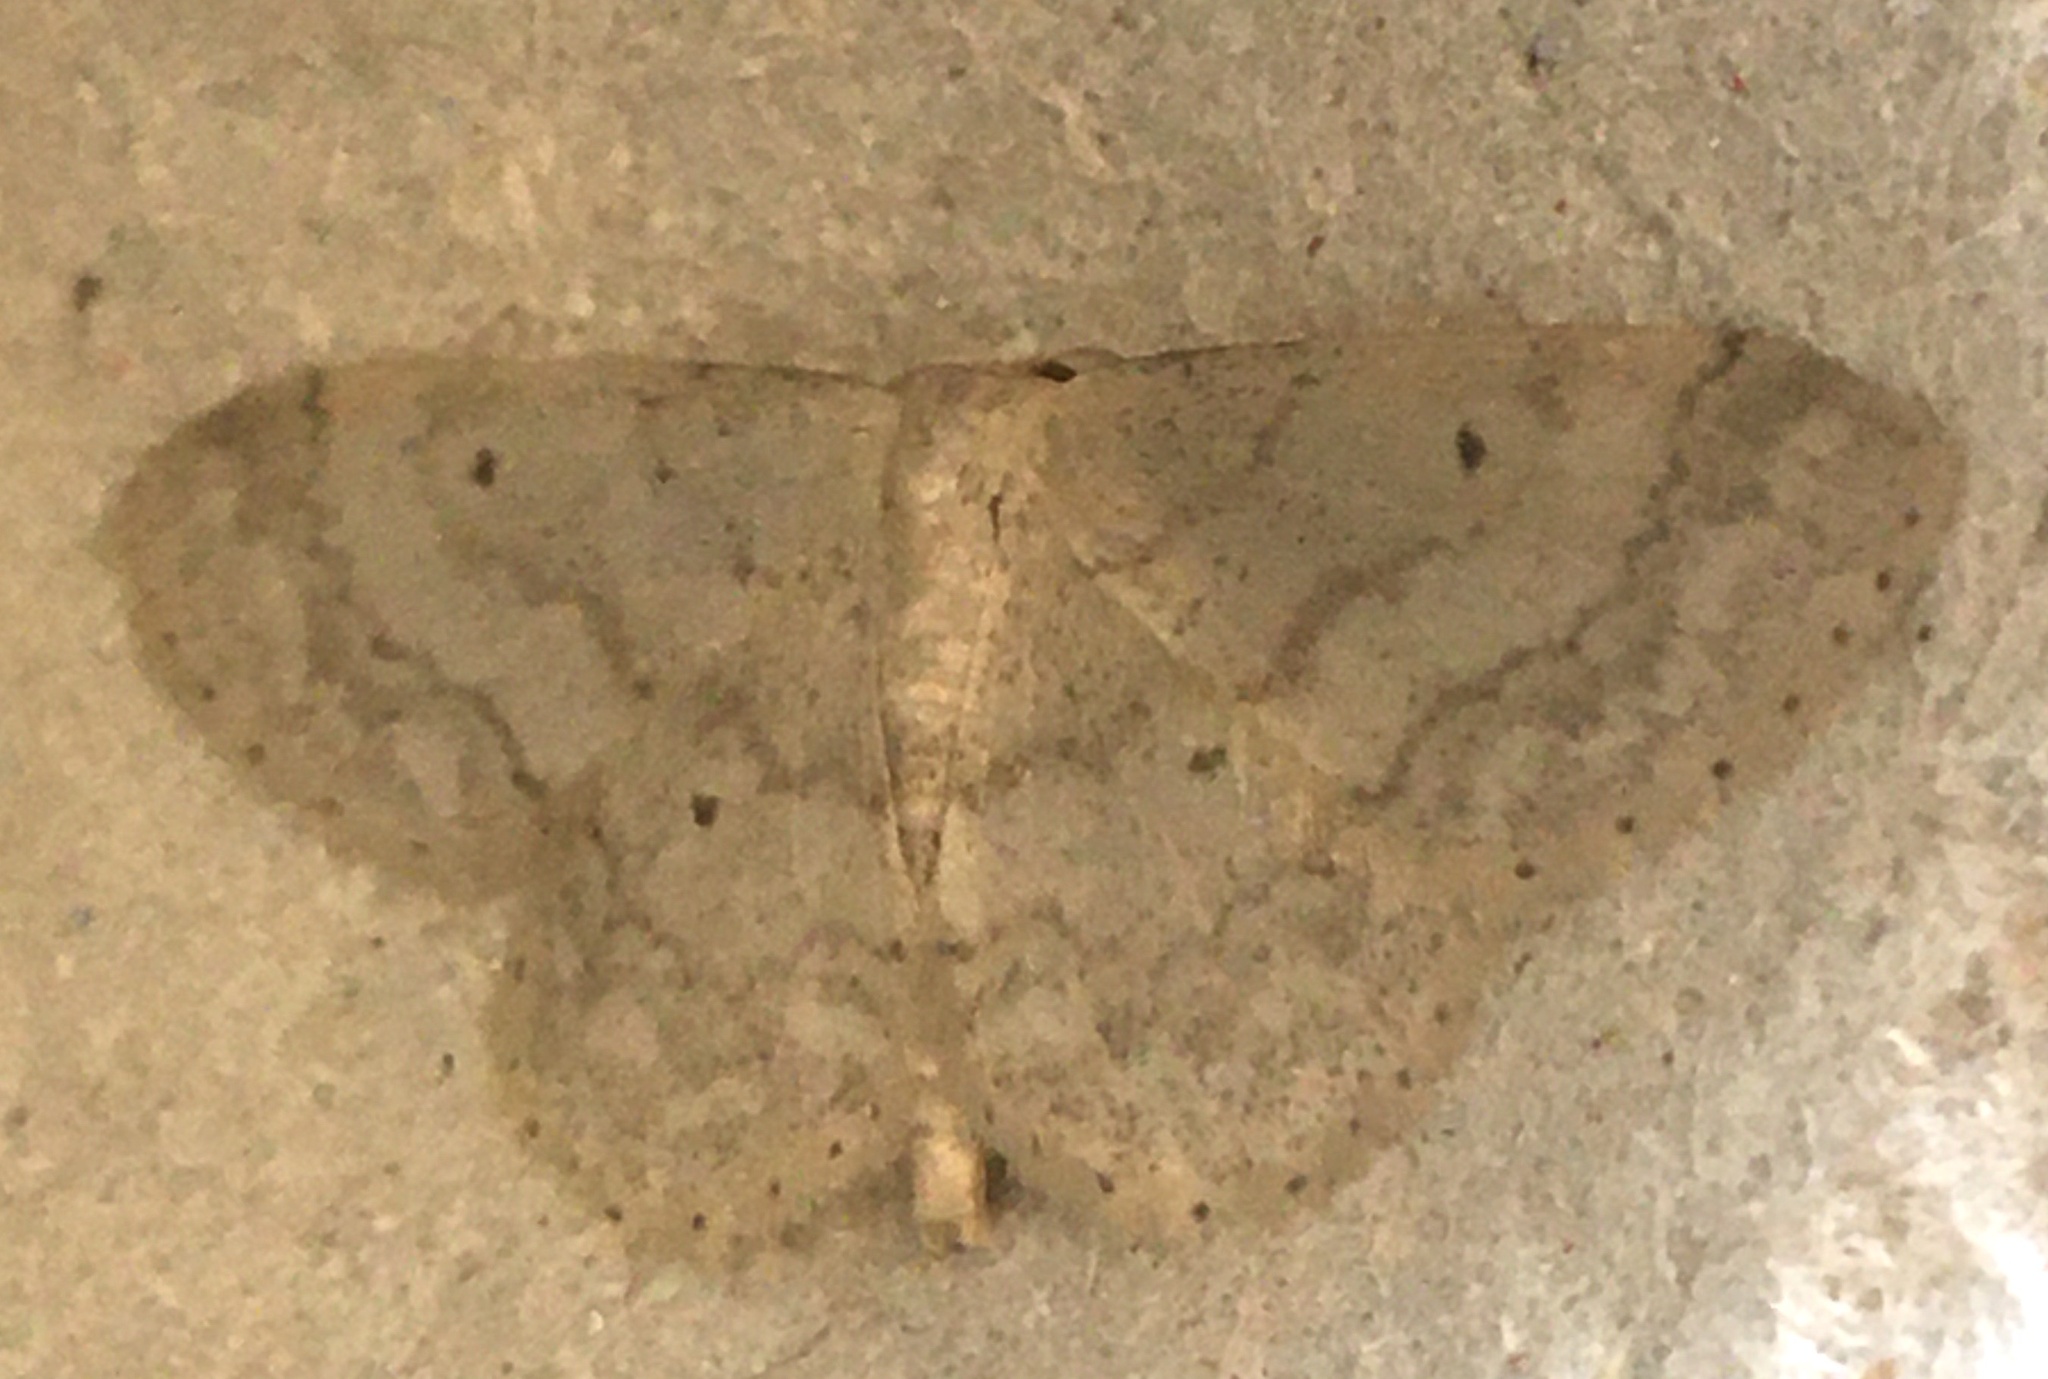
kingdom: Animalia
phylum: Arthropoda
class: Insecta
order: Lepidoptera
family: Geometridae
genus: Idaea
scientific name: Idaea biselata
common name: Small fan-footed wave
